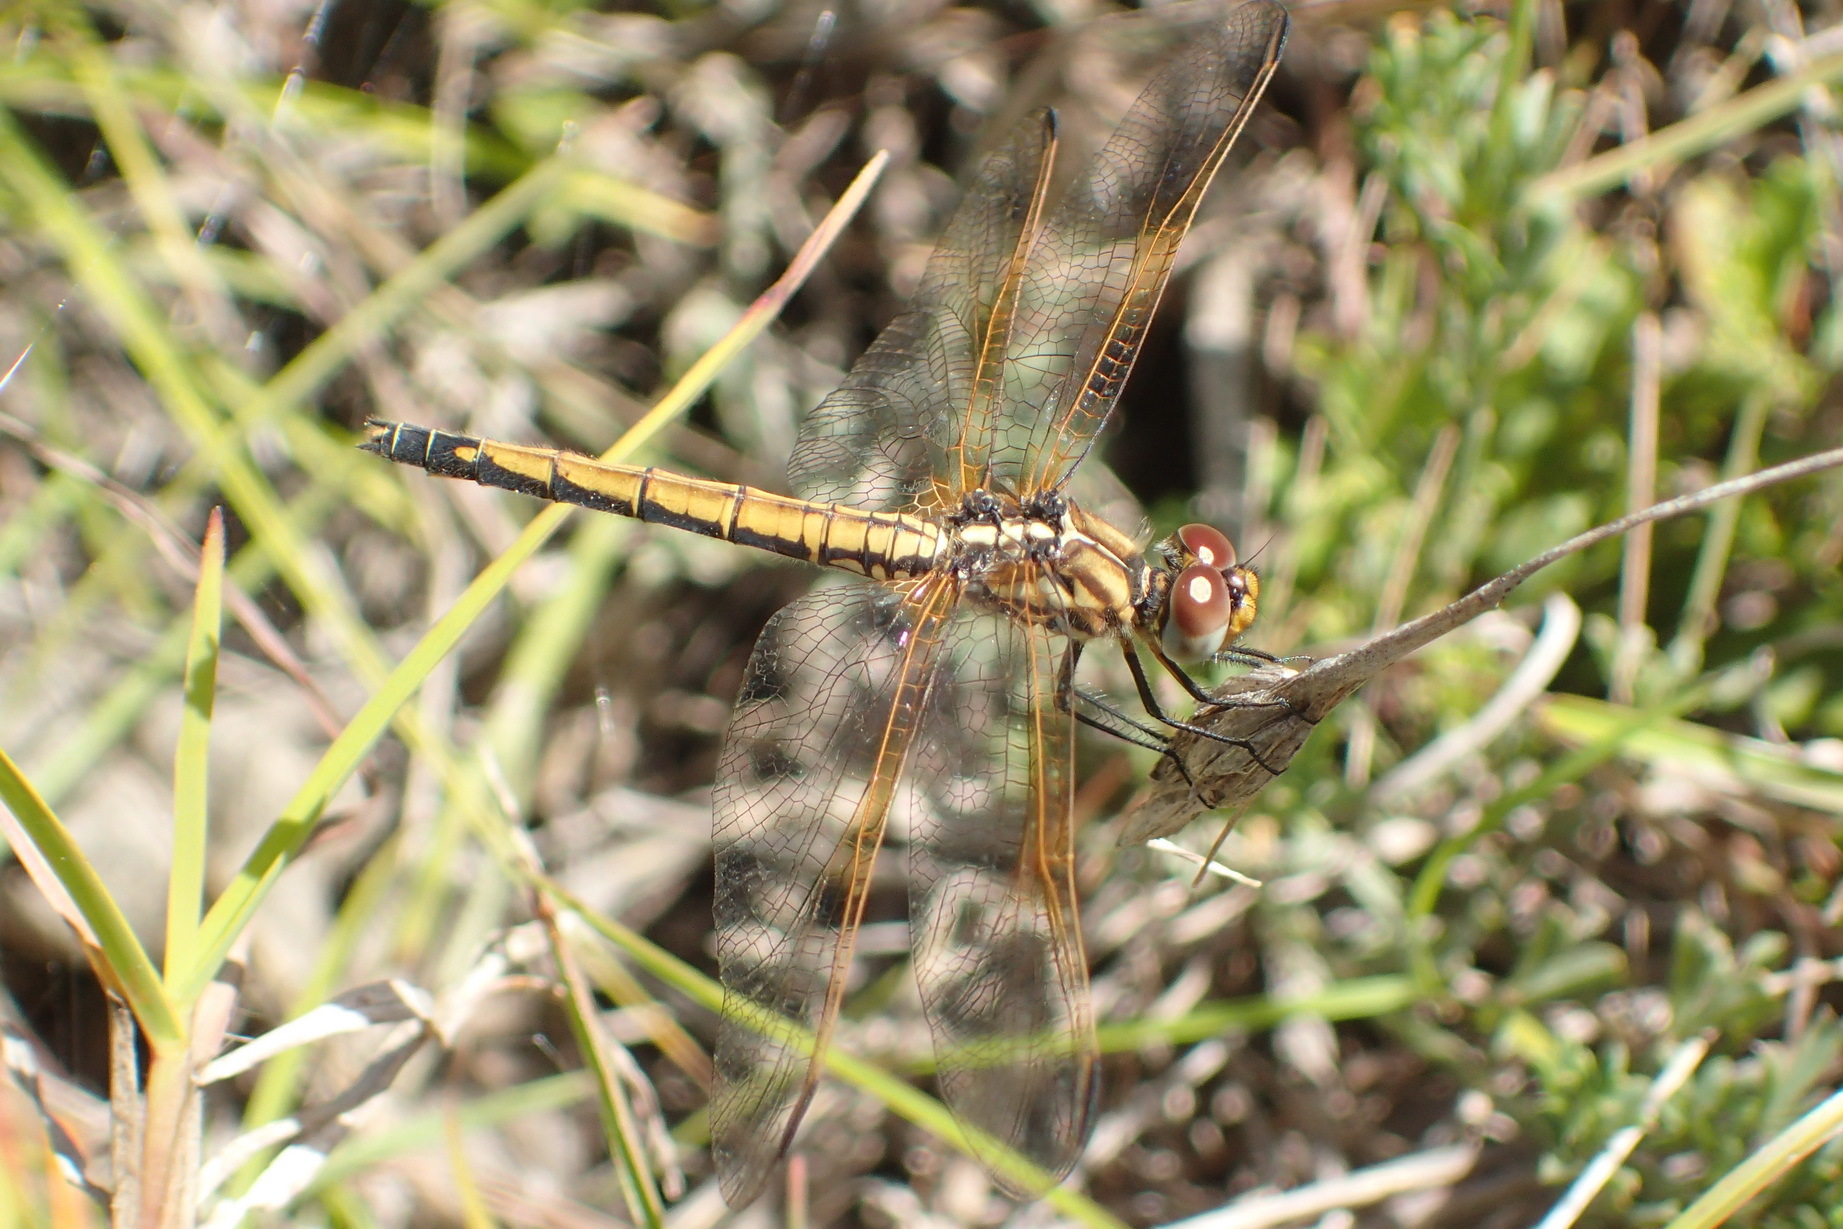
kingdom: Animalia
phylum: Arthropoda
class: Insecta
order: Odonata
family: Libellulidae
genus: Trithemis
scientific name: Trithemis arteriosa
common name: Red-veined dropwing
